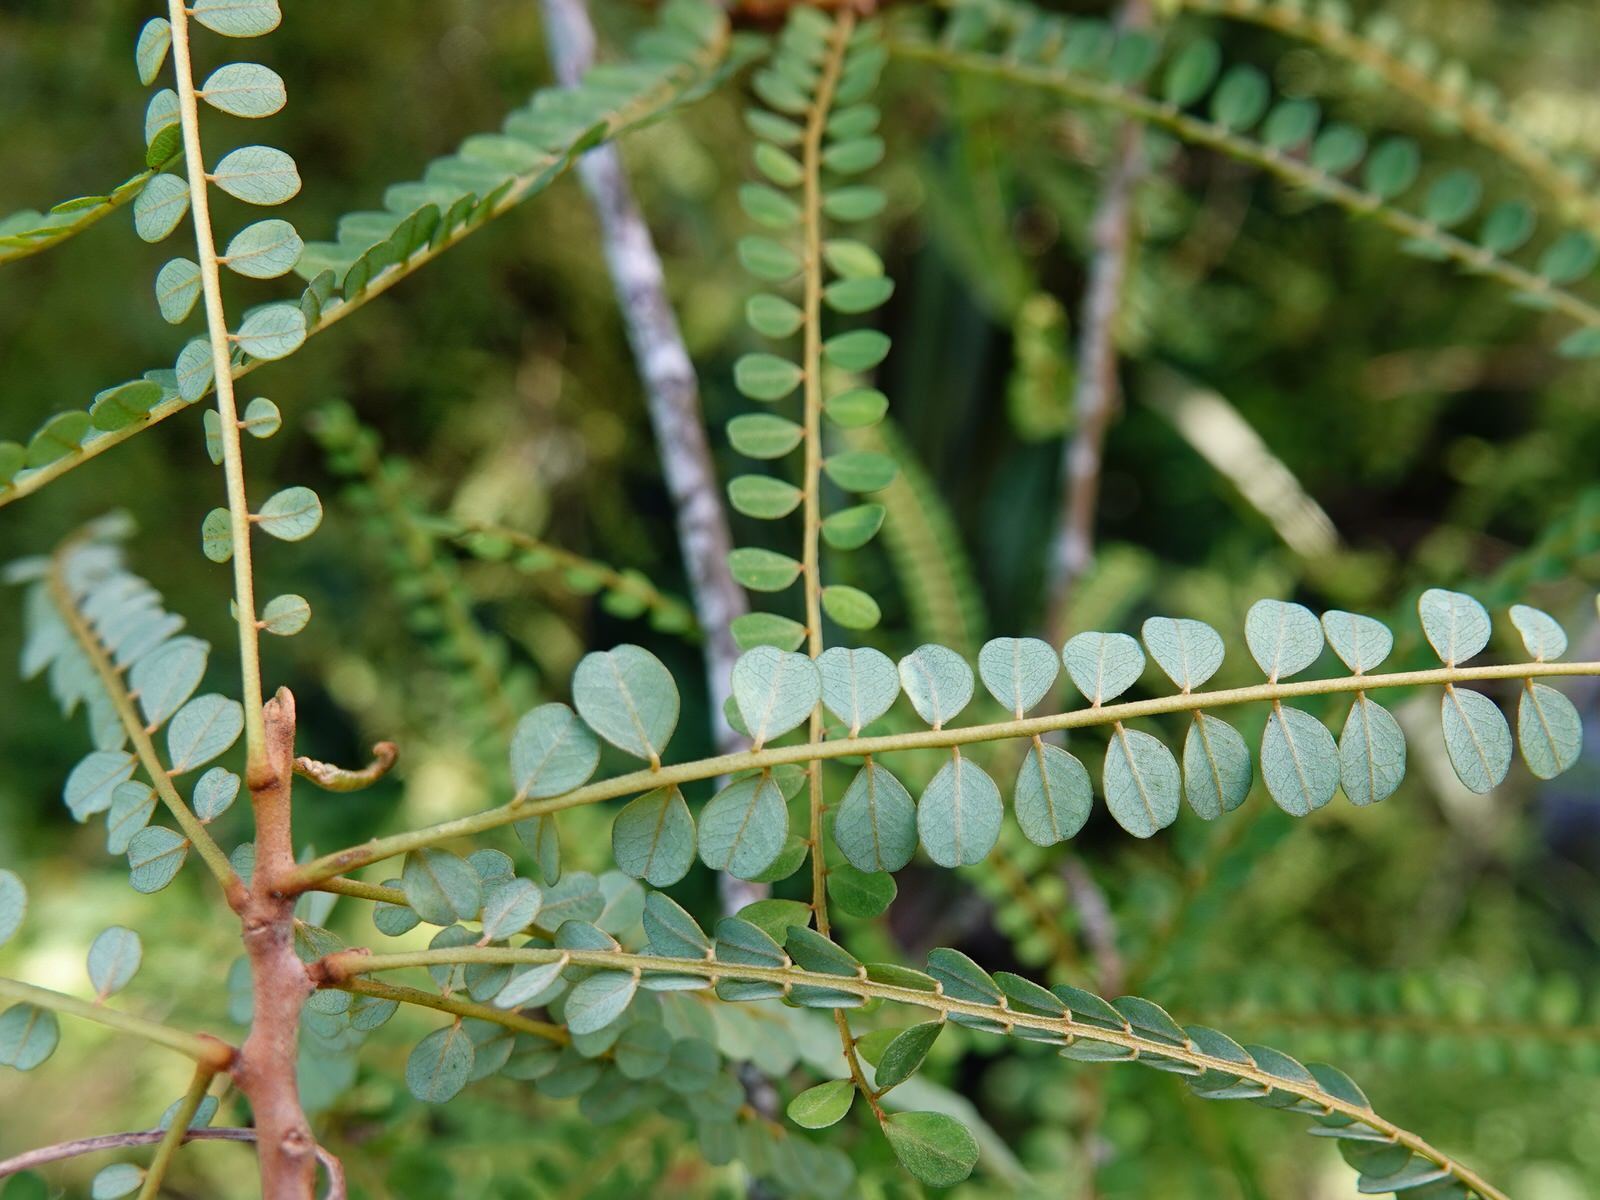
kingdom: Plantae
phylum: Tracheophyta
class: Magnoliopsida
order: Fabales
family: Fabaceae
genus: Sophora
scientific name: Sophora microphylla
